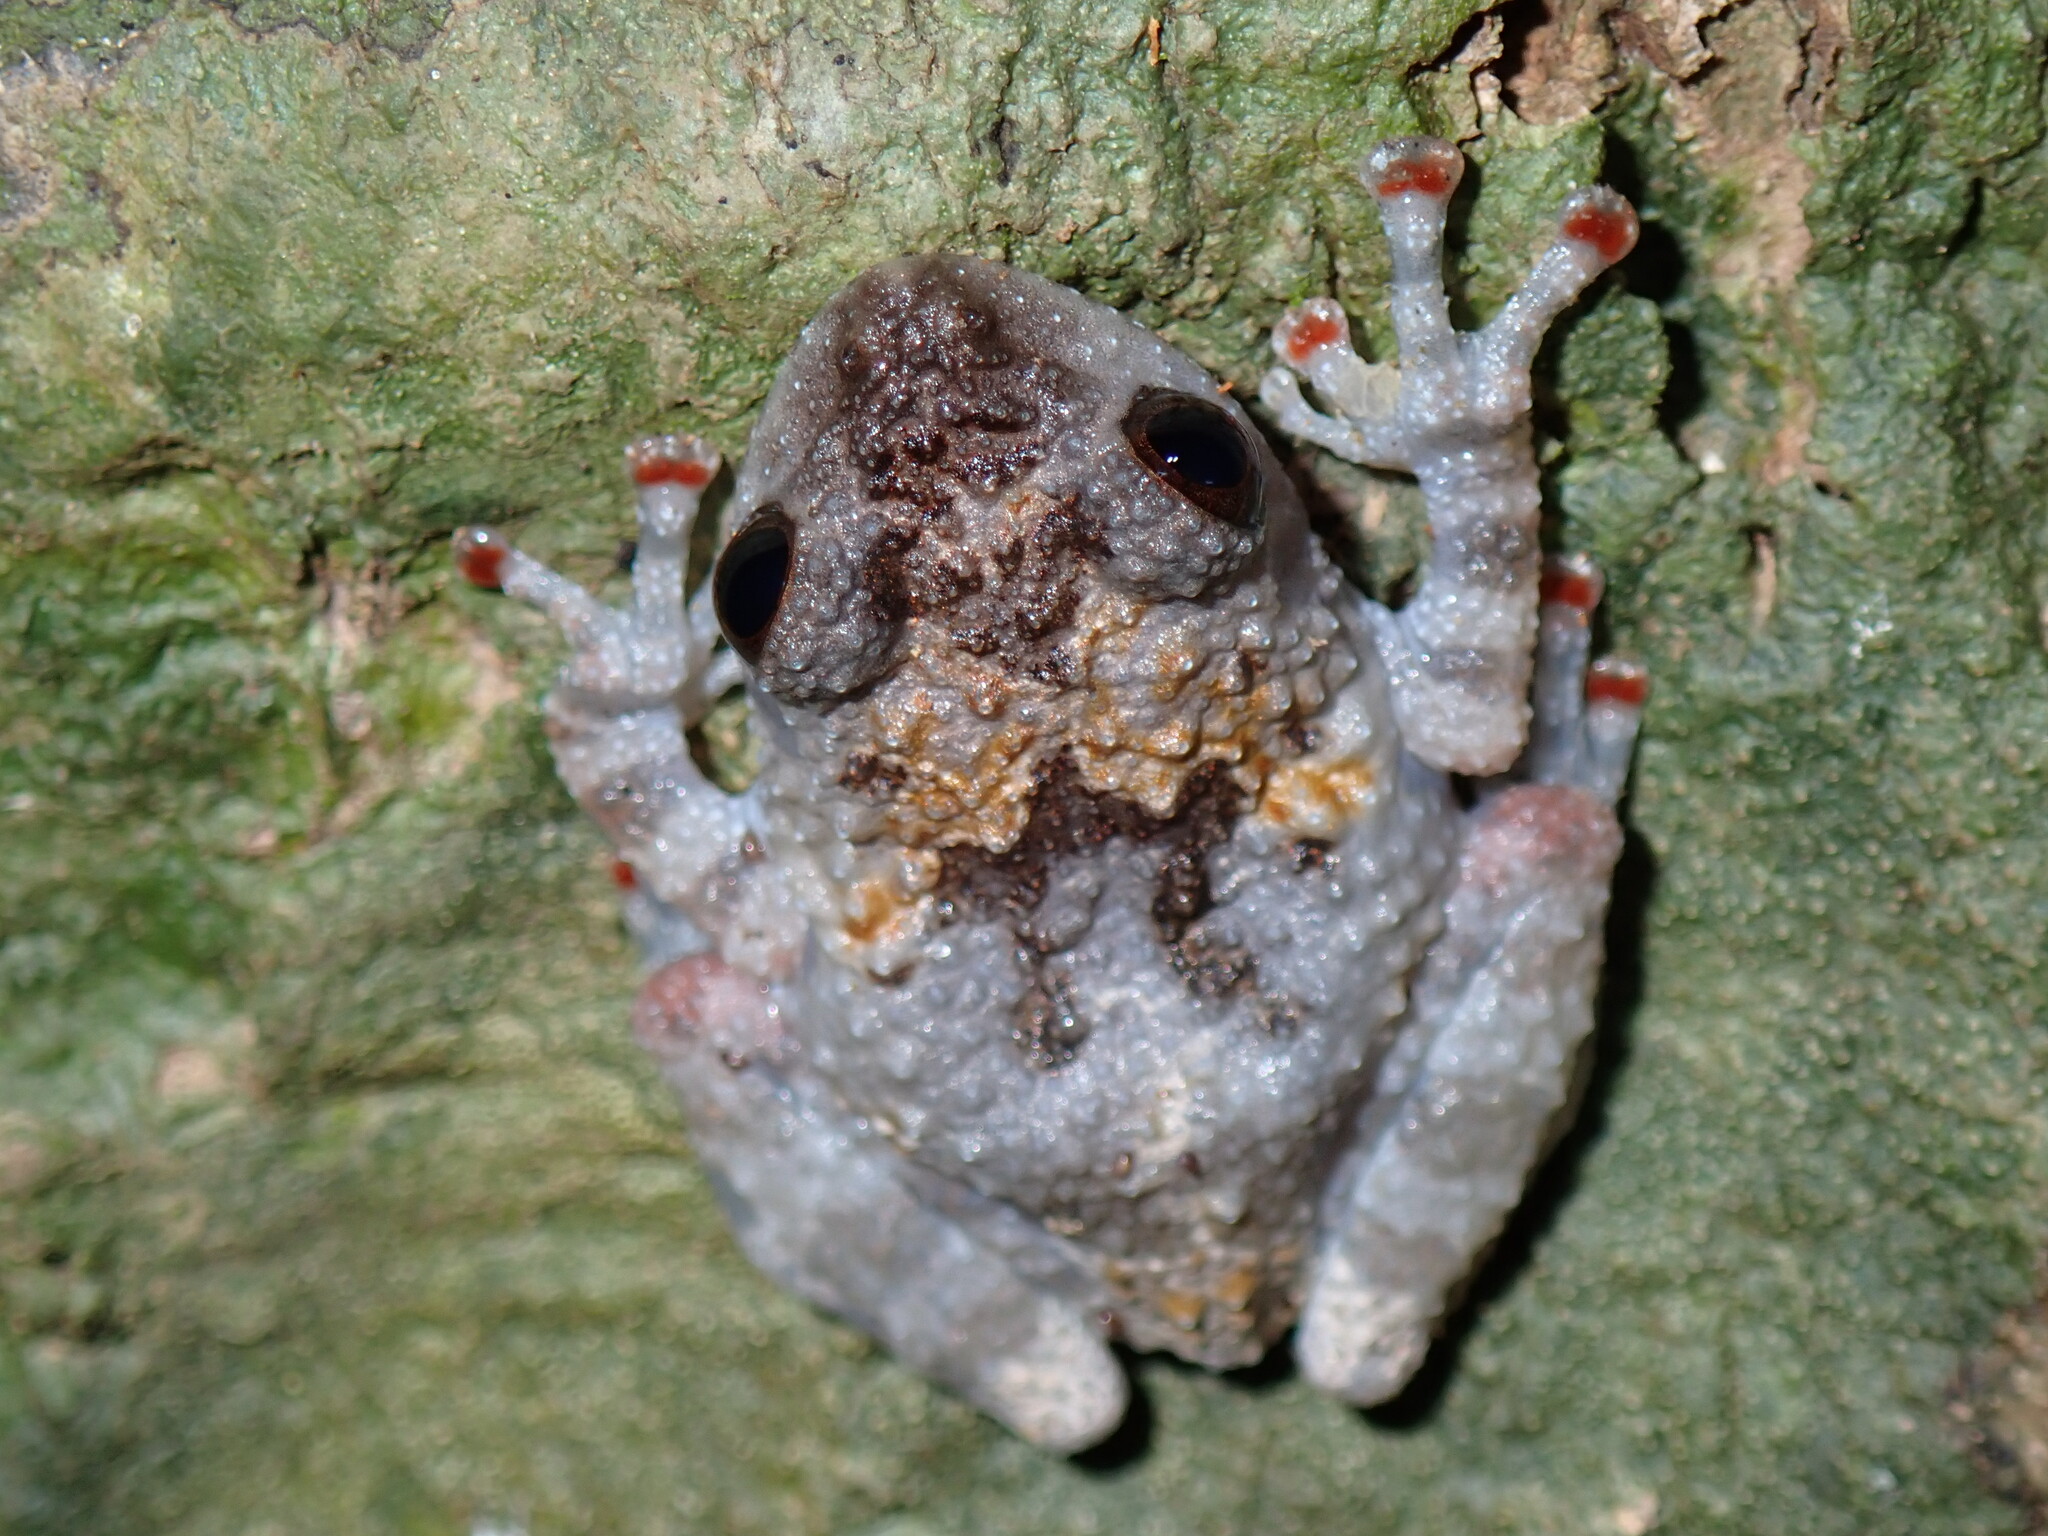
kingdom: Animalia
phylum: Chordata
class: Amphibia
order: Anura
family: Rhacophoridae
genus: Theloderma
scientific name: Theloderma vietnamense
